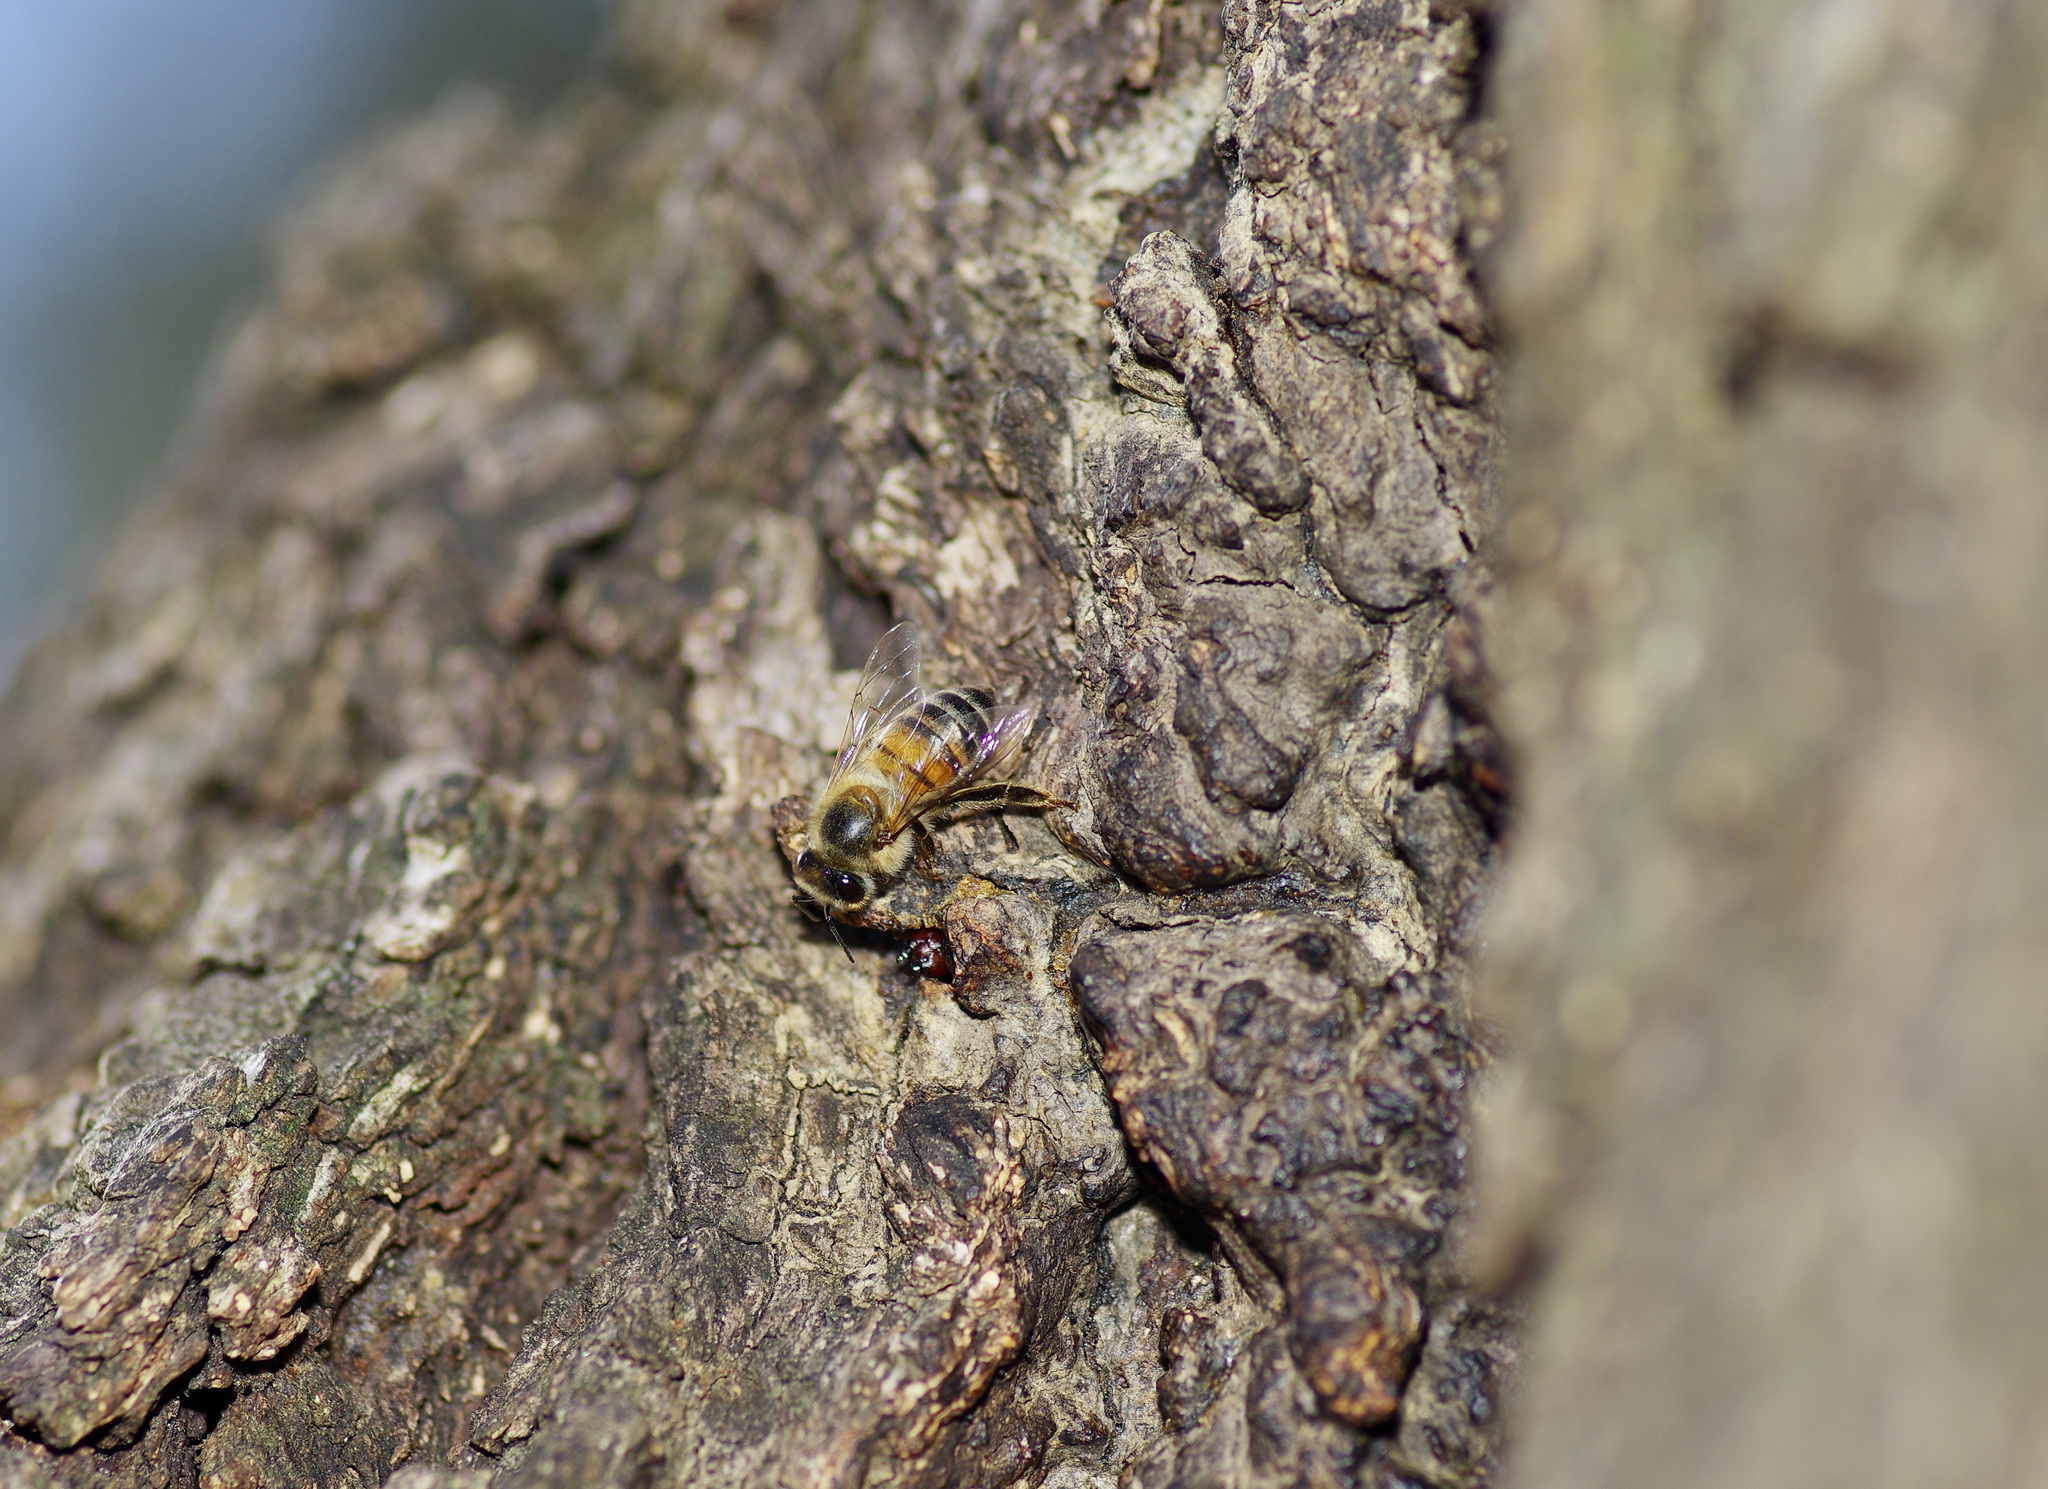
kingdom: Animalia
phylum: Arthropoda
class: Insecta
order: Hymenoptera
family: Apidae
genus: Apis
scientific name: Apis mellifera
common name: Honey bee
